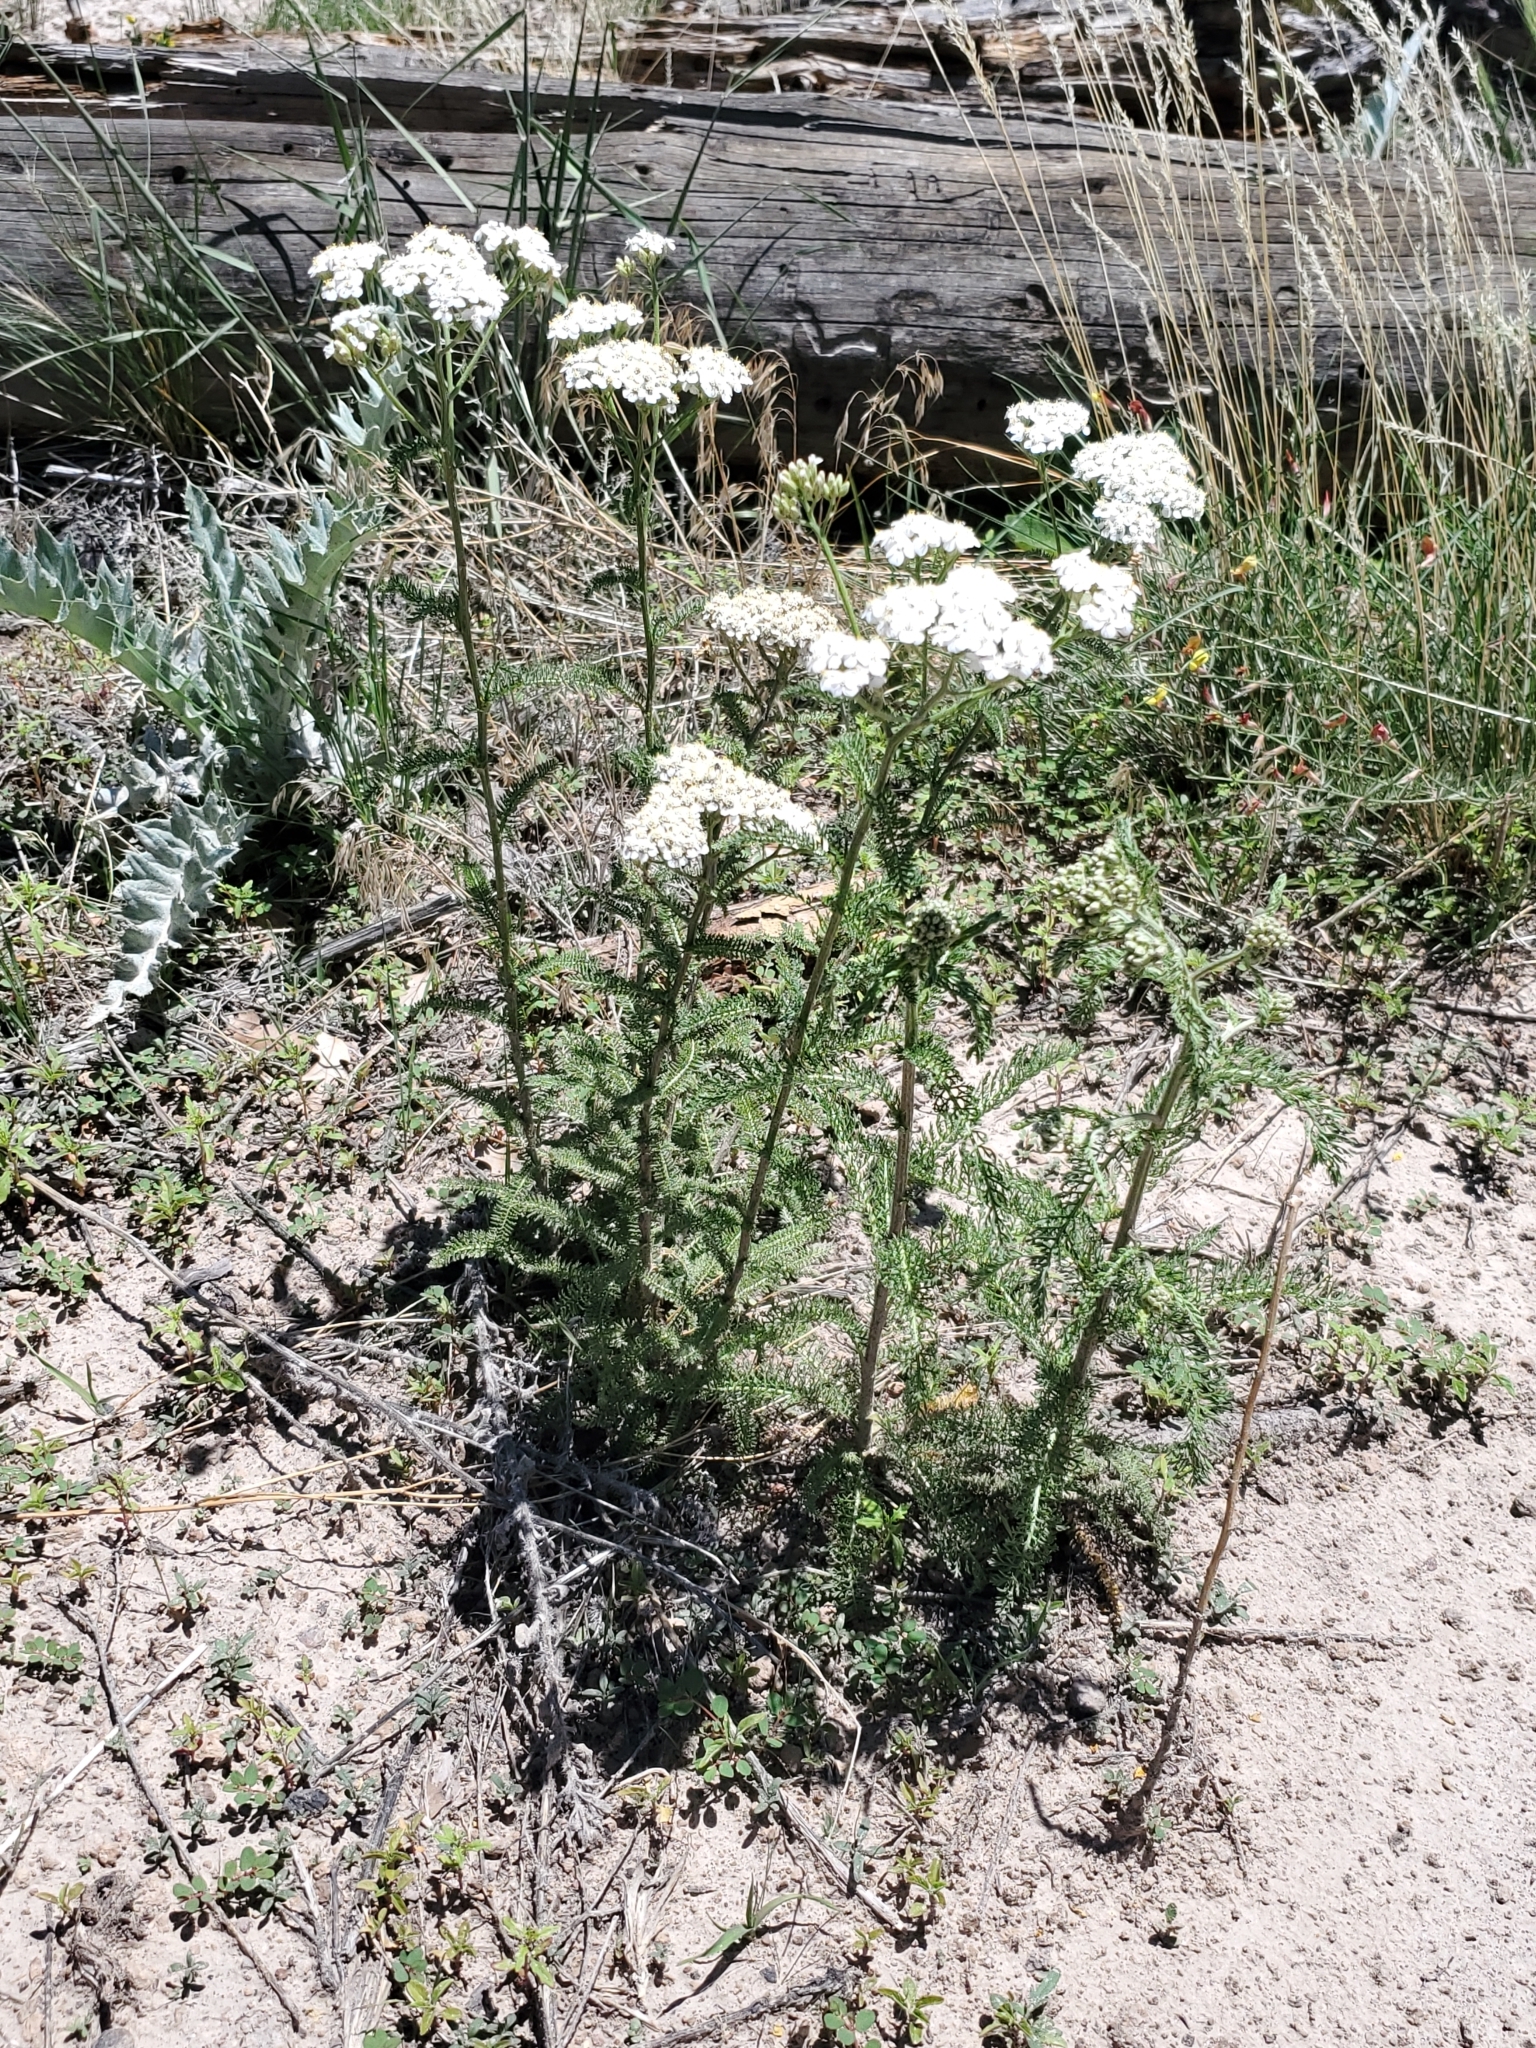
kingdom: Plantae
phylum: Tracheophyta
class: Magnoliopsida
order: Asterales
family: Asteraceae
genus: Achillea
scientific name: Achillea millefolium
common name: Yarrow
